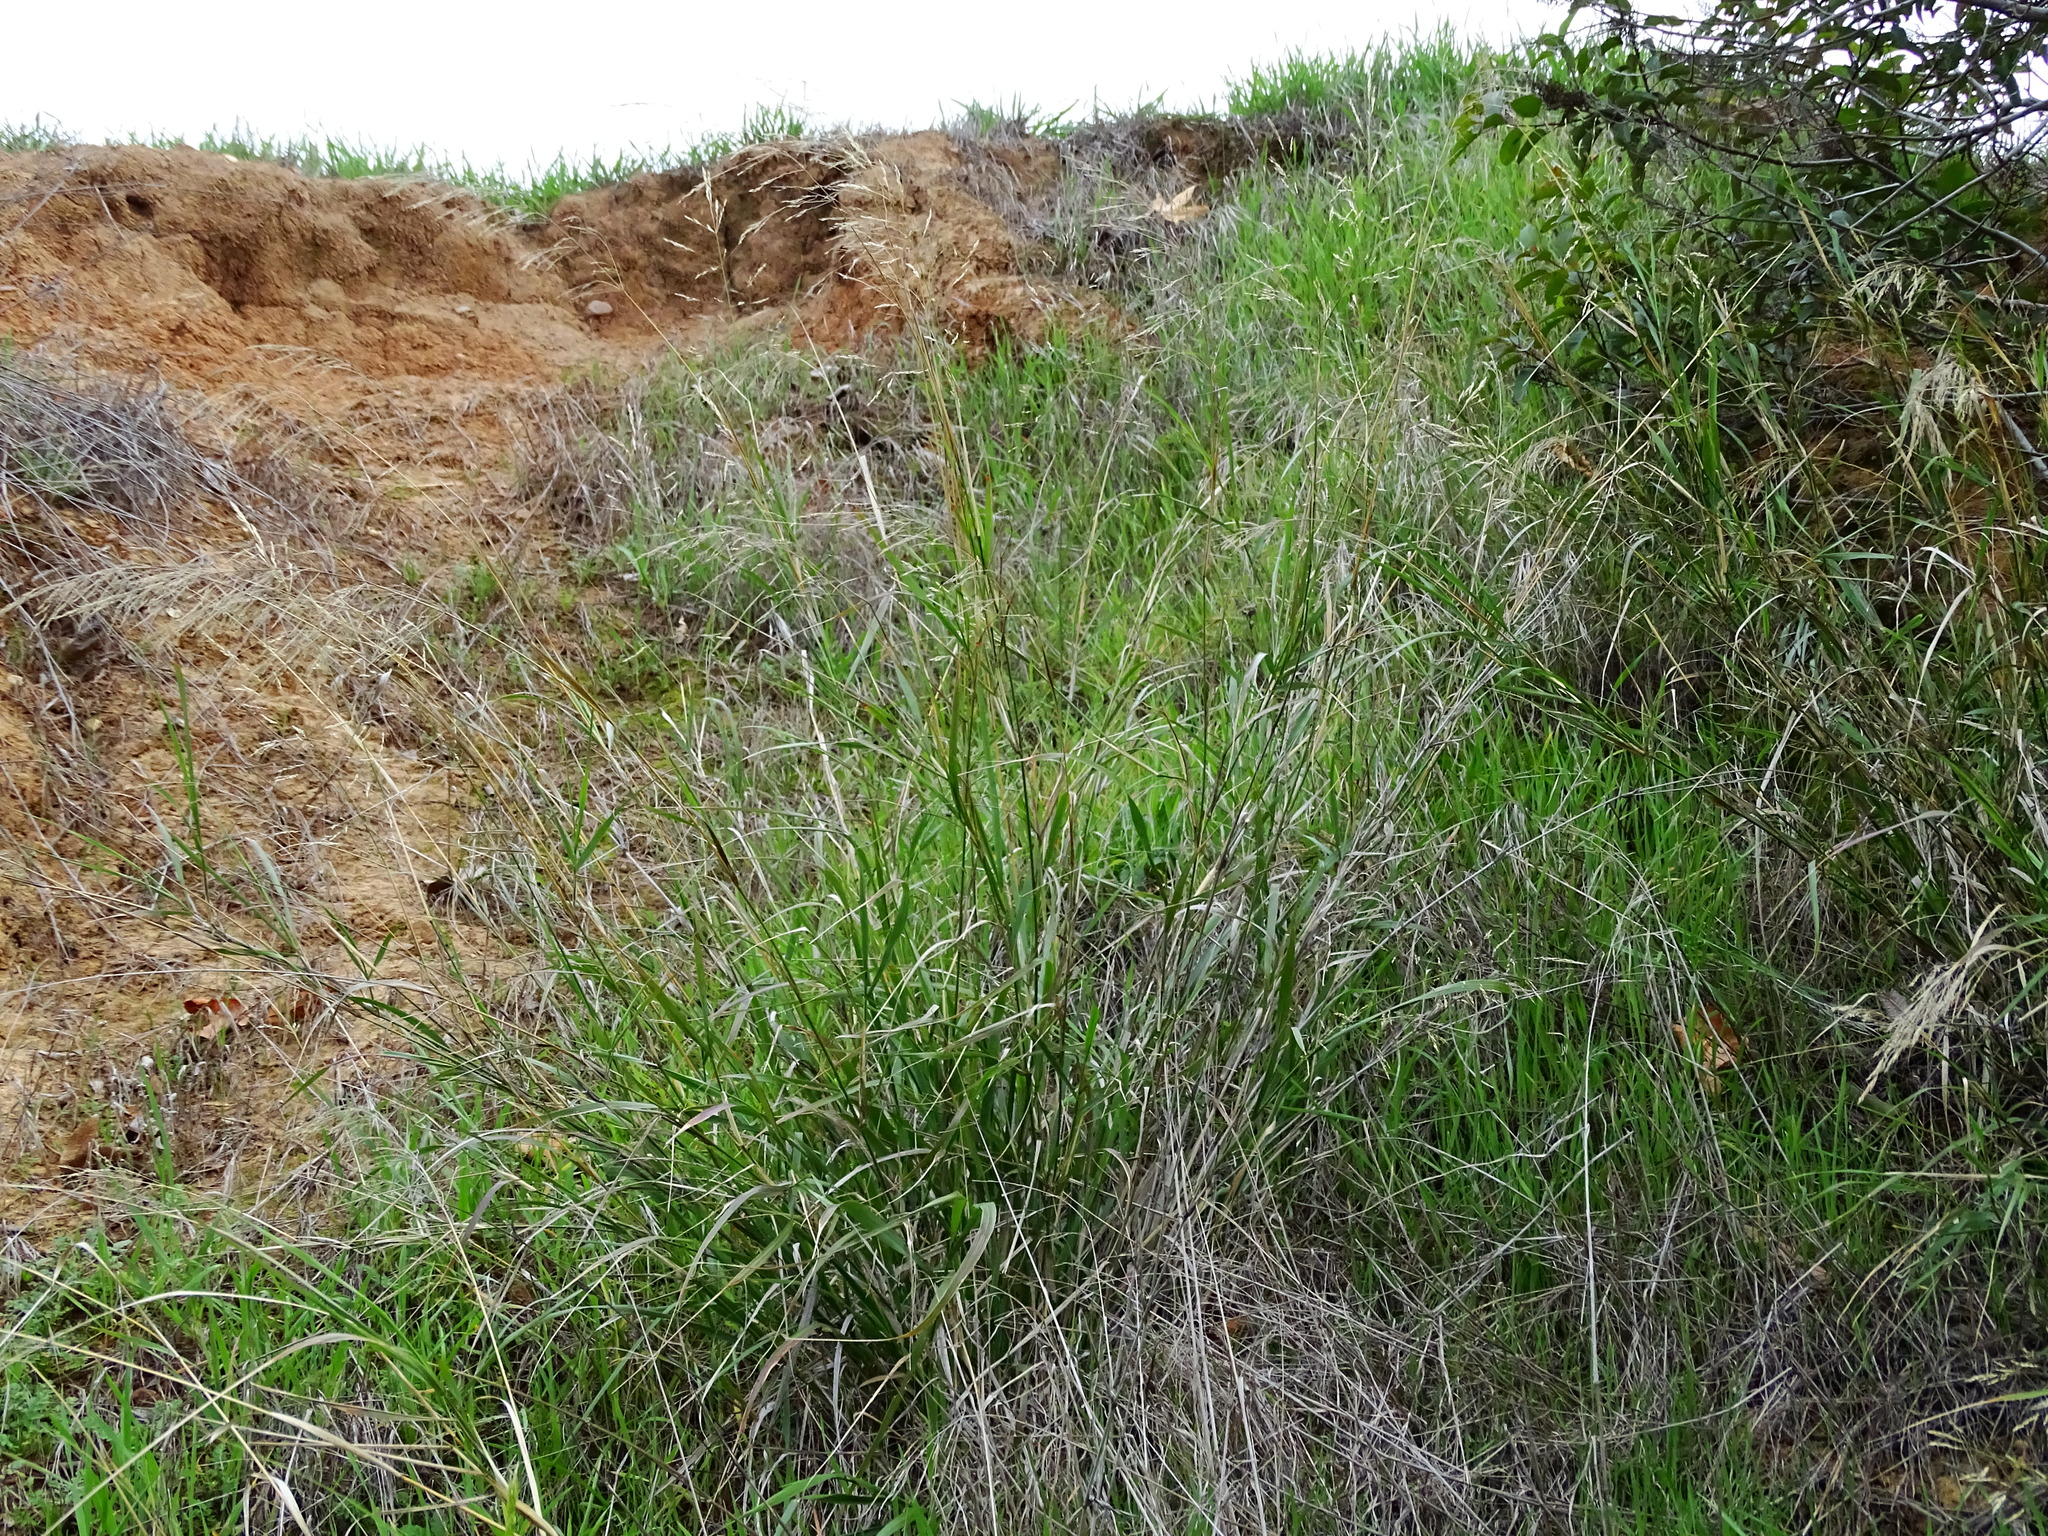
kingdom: Plantae
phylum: Tracheophyta
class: Liliopsida
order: Poales
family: Poaceae
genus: Oloptum
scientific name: Oloptum miliaceum
